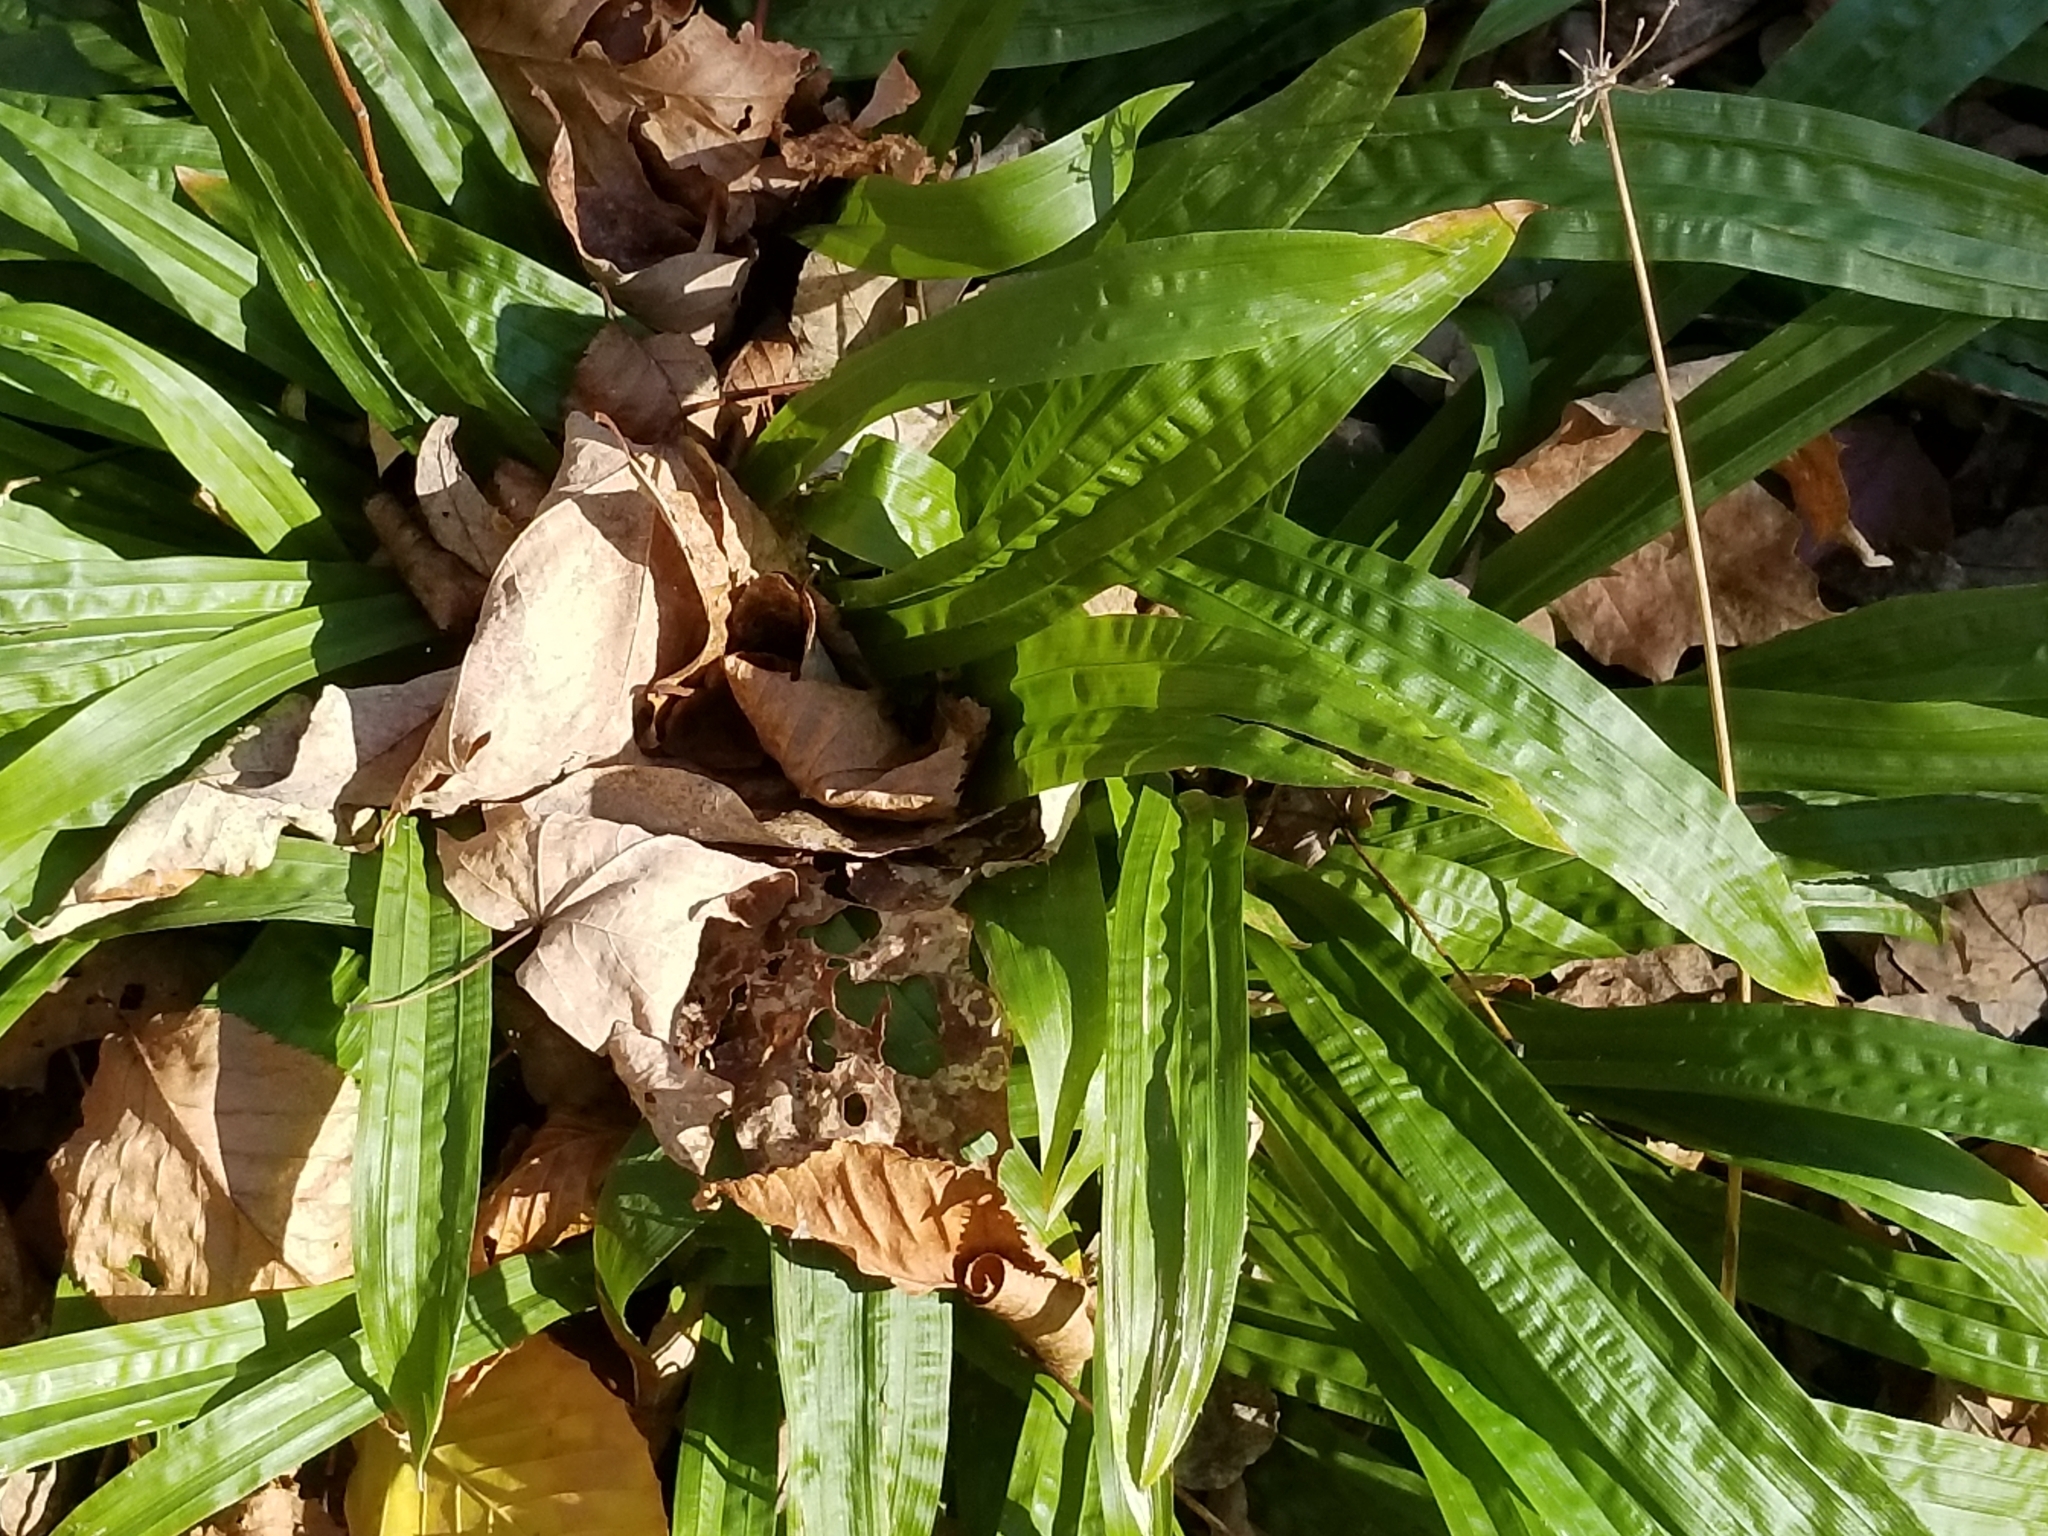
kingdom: Plantae
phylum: Tracheophyta
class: Liliopsida
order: Poales
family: Cyperaceae
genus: Carex
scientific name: Carex plantaginea
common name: Plantain-leaved sedge
